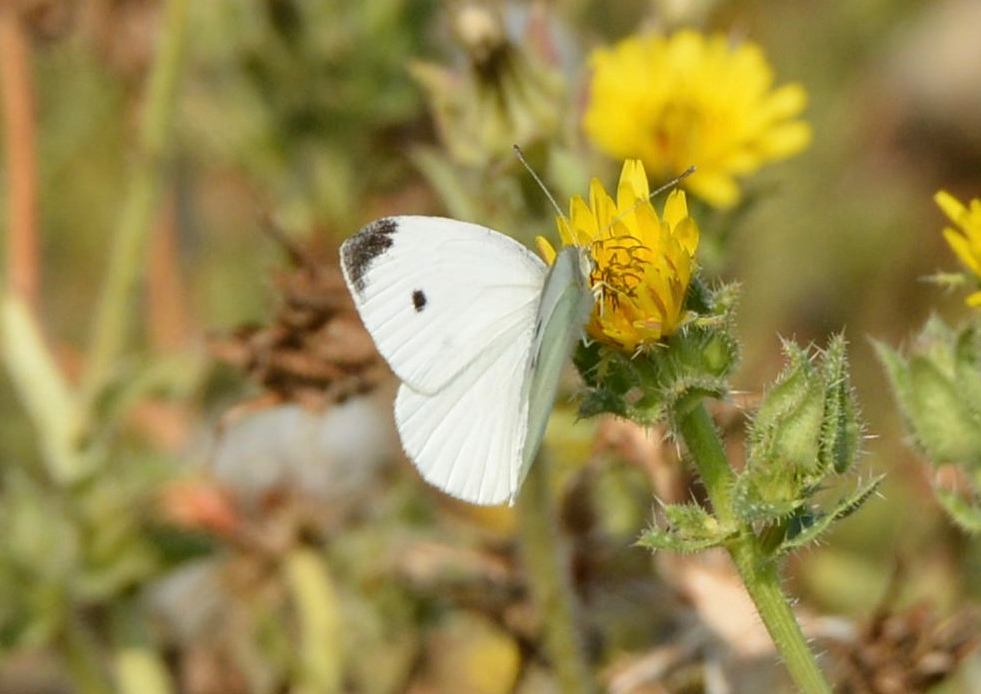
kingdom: Animalia
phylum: Arthropoda
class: Insecta
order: Lepidoptera
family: Pieridae
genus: Pieris
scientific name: Pieris rapae
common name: Small white
